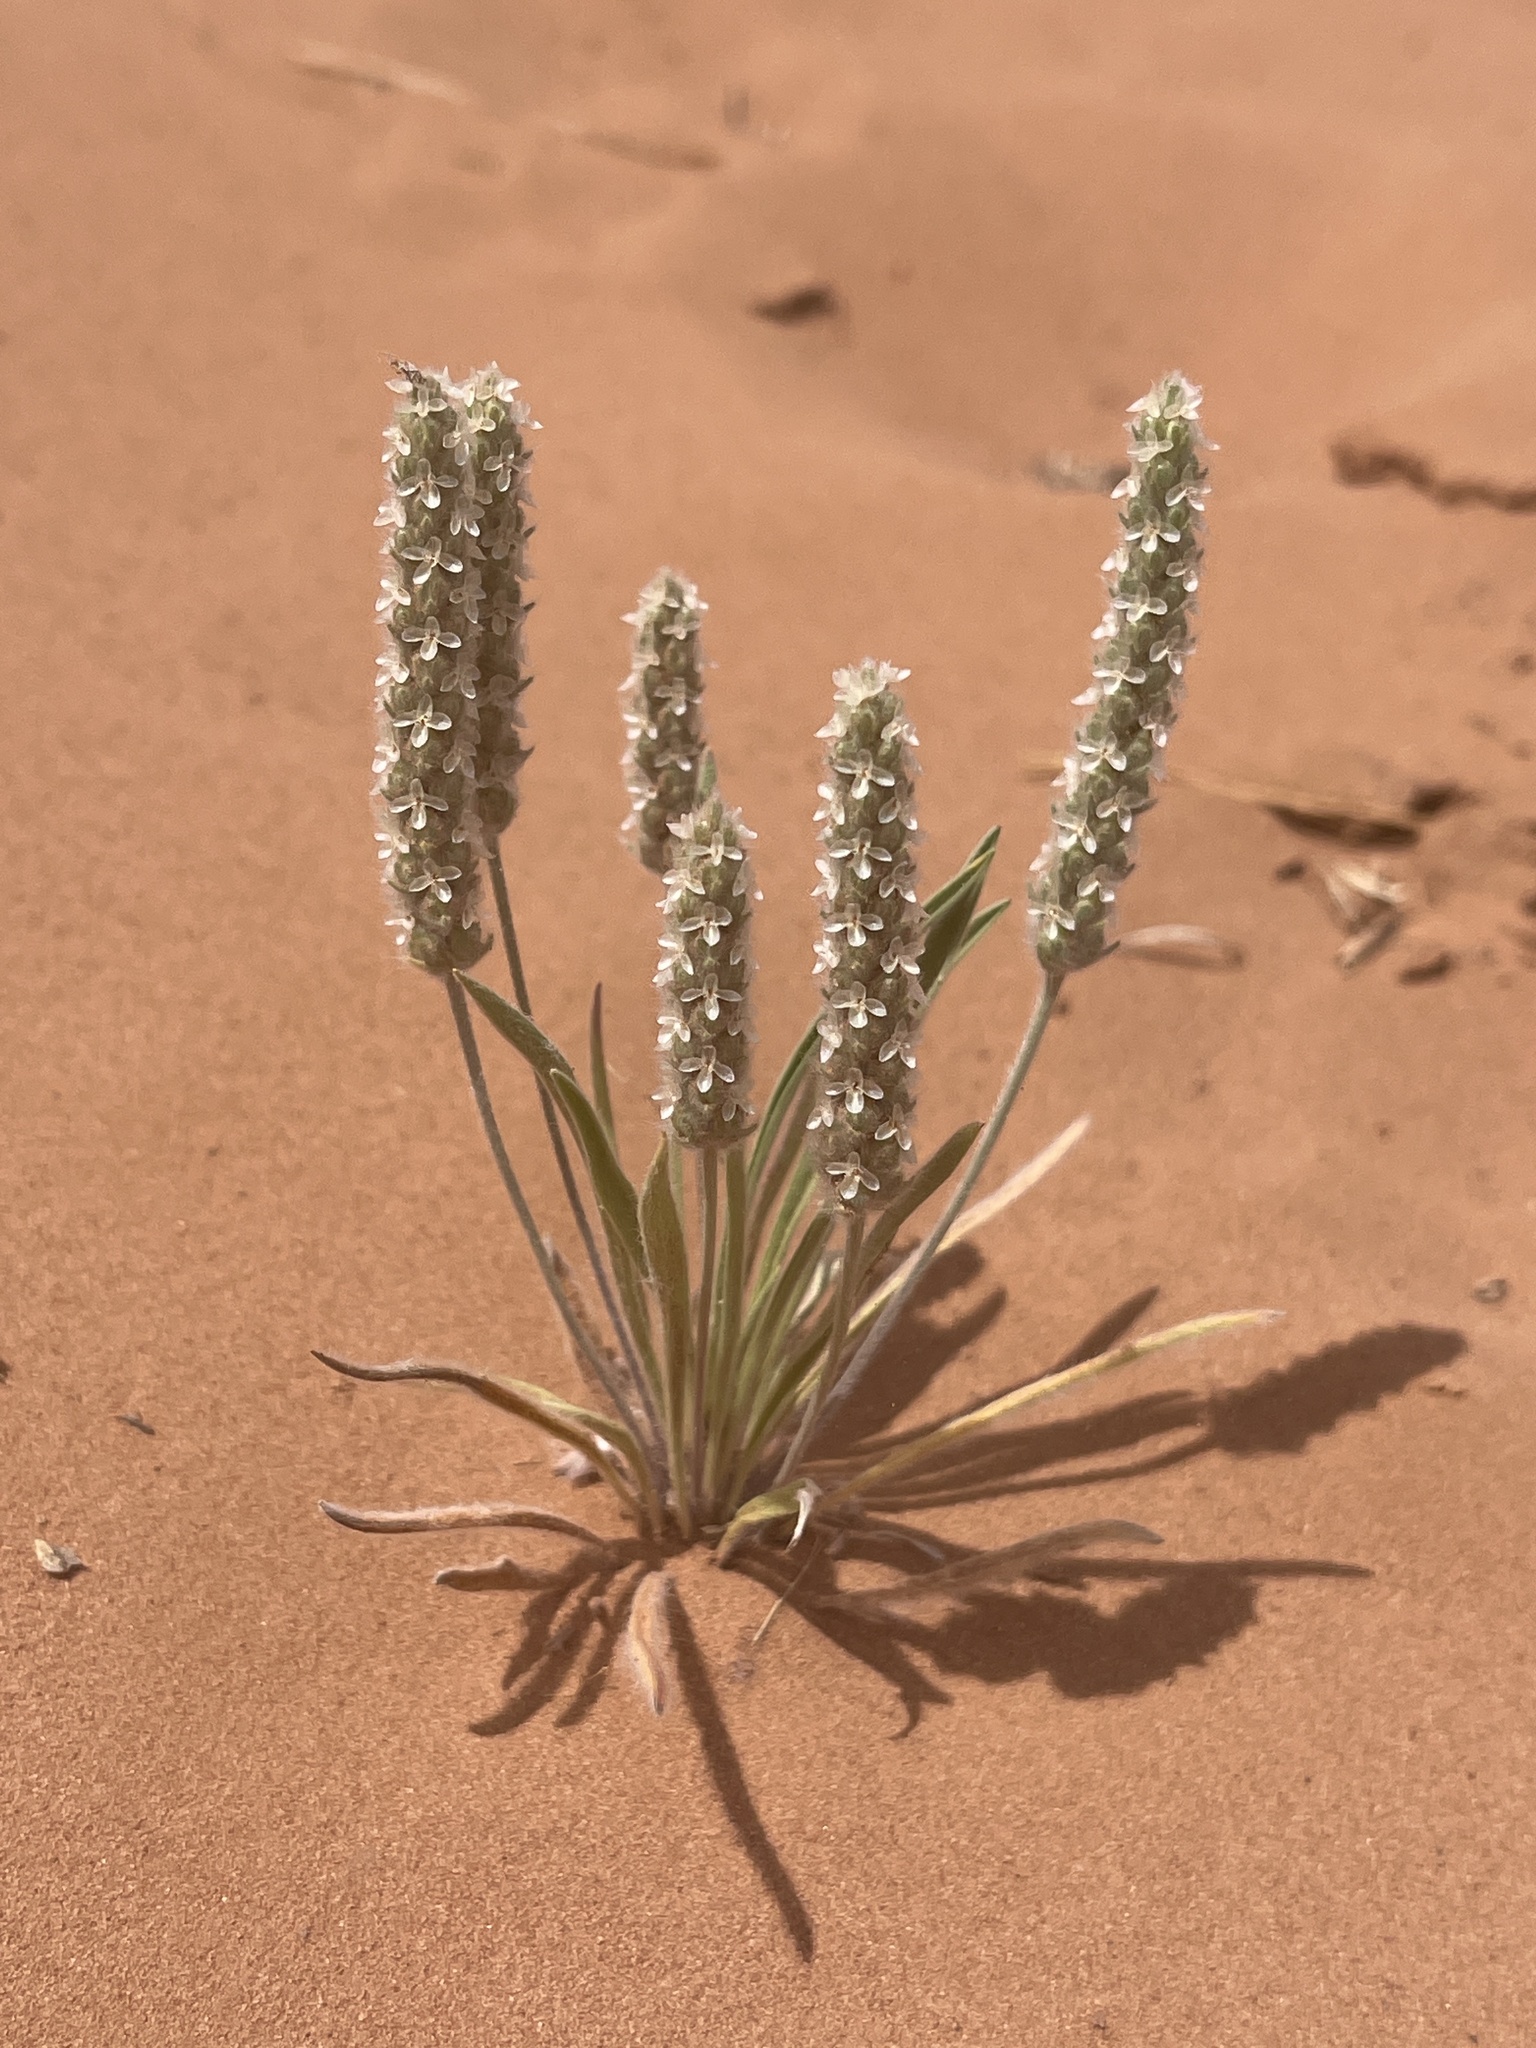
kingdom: Plantae
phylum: Tracheophyta
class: Magnoliopsida
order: Lamiales
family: Plantaginaceae
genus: Plantago
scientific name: Plantago patagonica
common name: Patagonia indian-wheat
